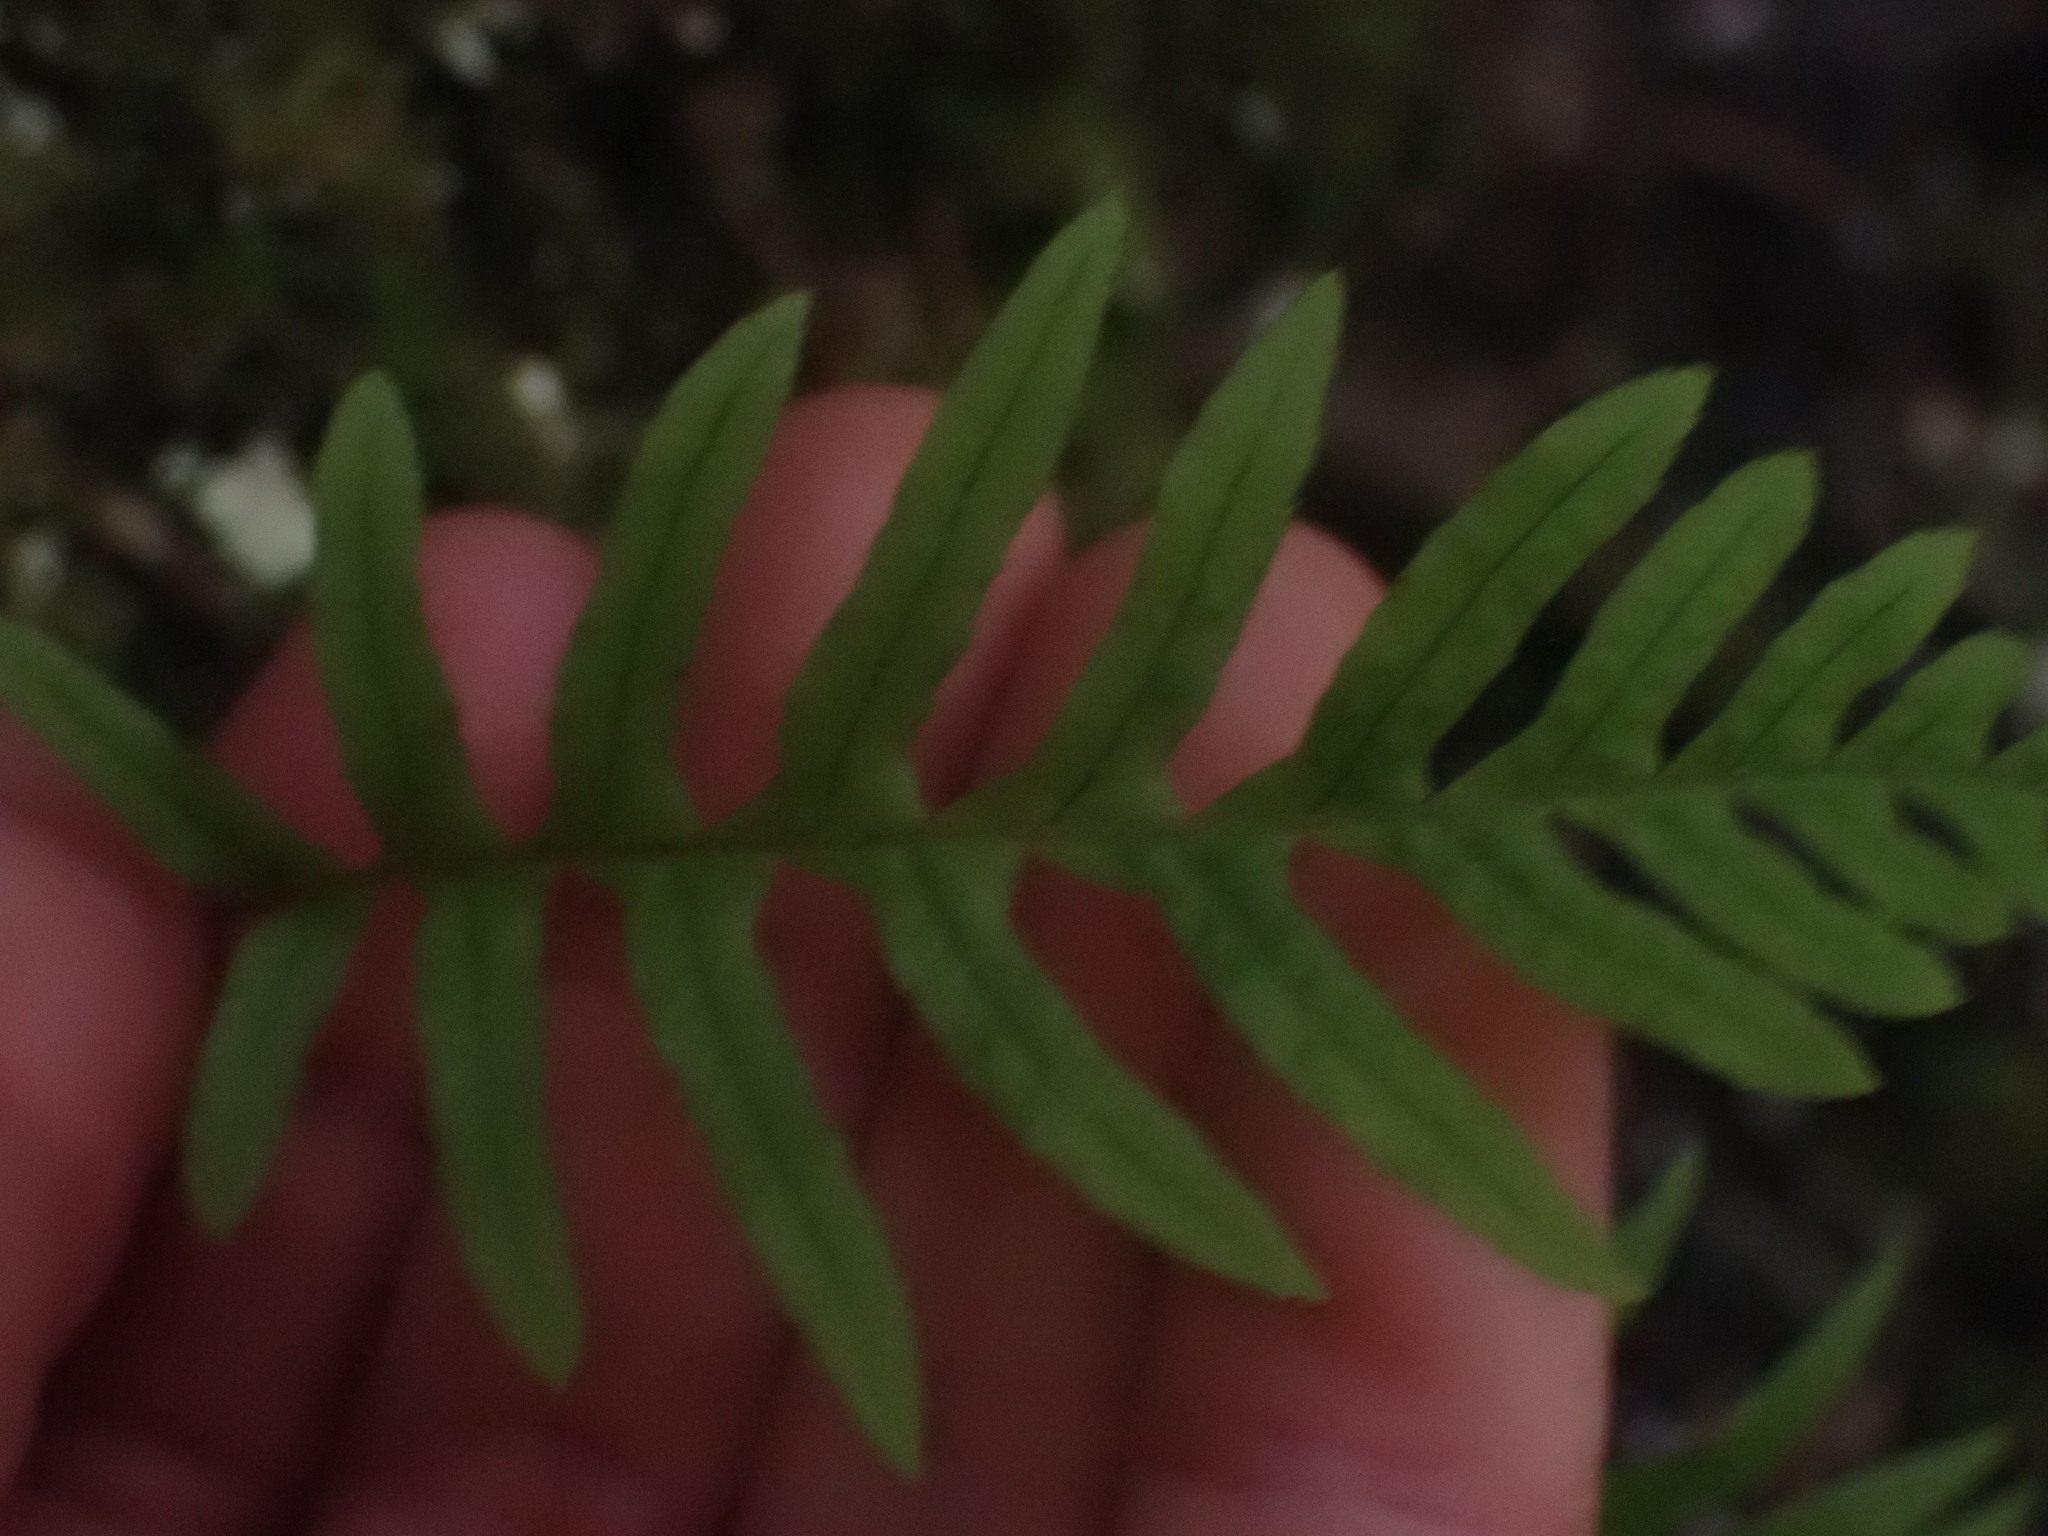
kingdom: Plantae
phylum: Tracheophyta
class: Polypodiopsida
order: Polypodiales
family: Polypodiaceae
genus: Polypodium
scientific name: Polypodium glycyrrhiza
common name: Licorice fern
